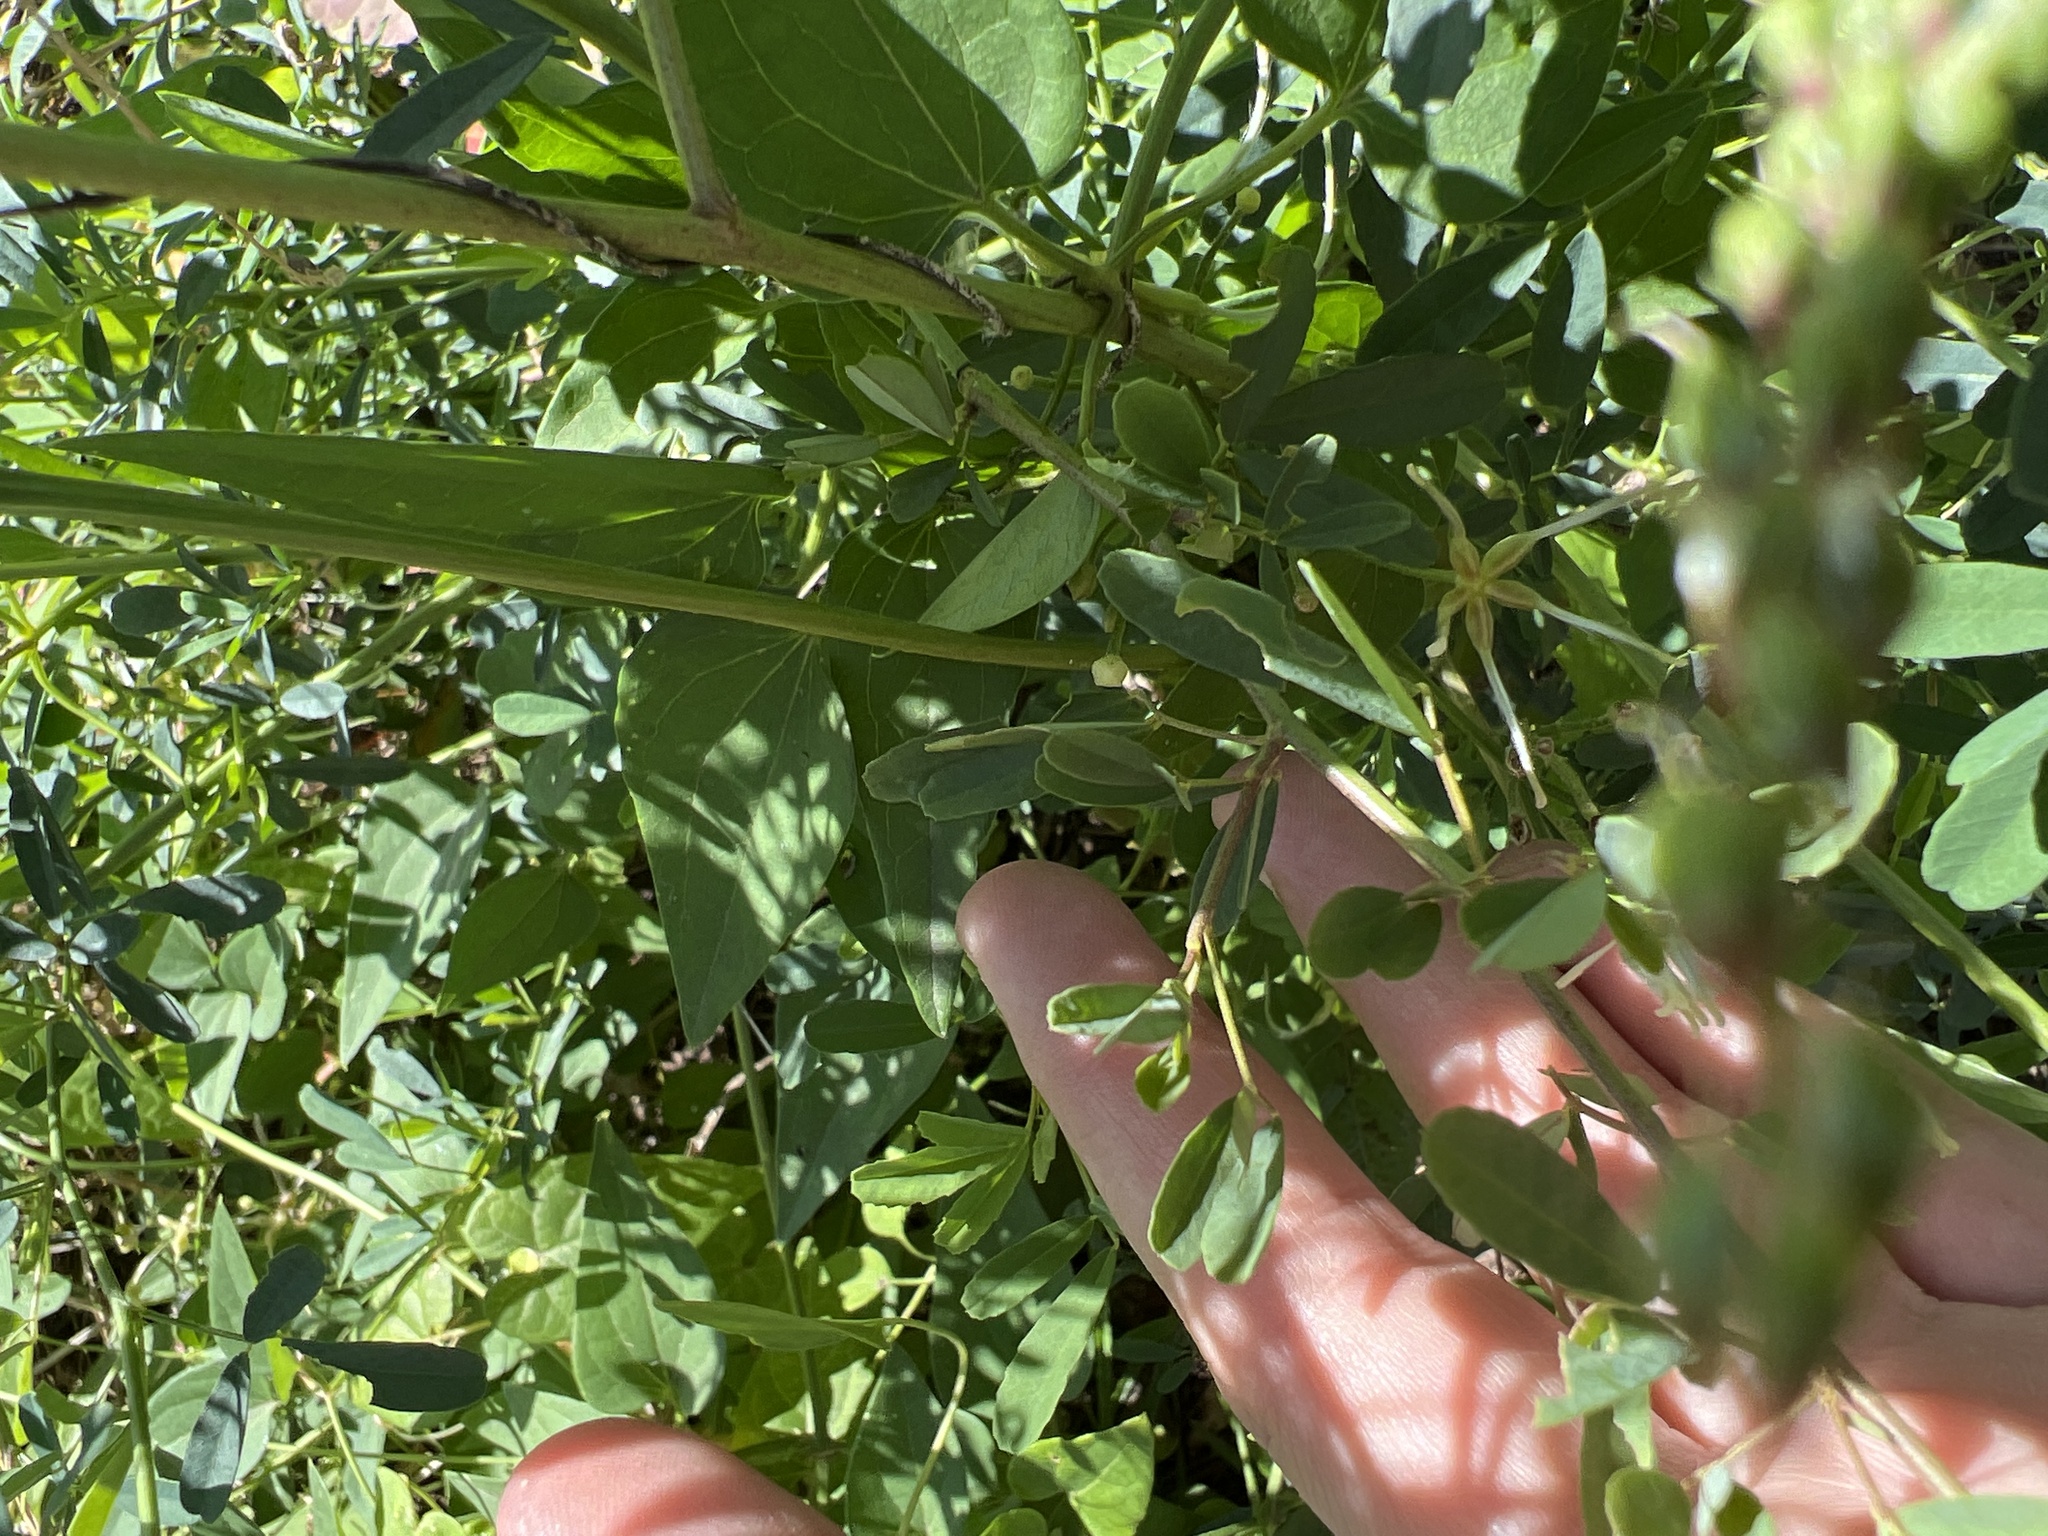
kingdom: Plantae
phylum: Tracheophyta
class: Magnoliopsida
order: Fabales
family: Fabaceae
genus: Melilotus
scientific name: Melilotus albus
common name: White melilot
